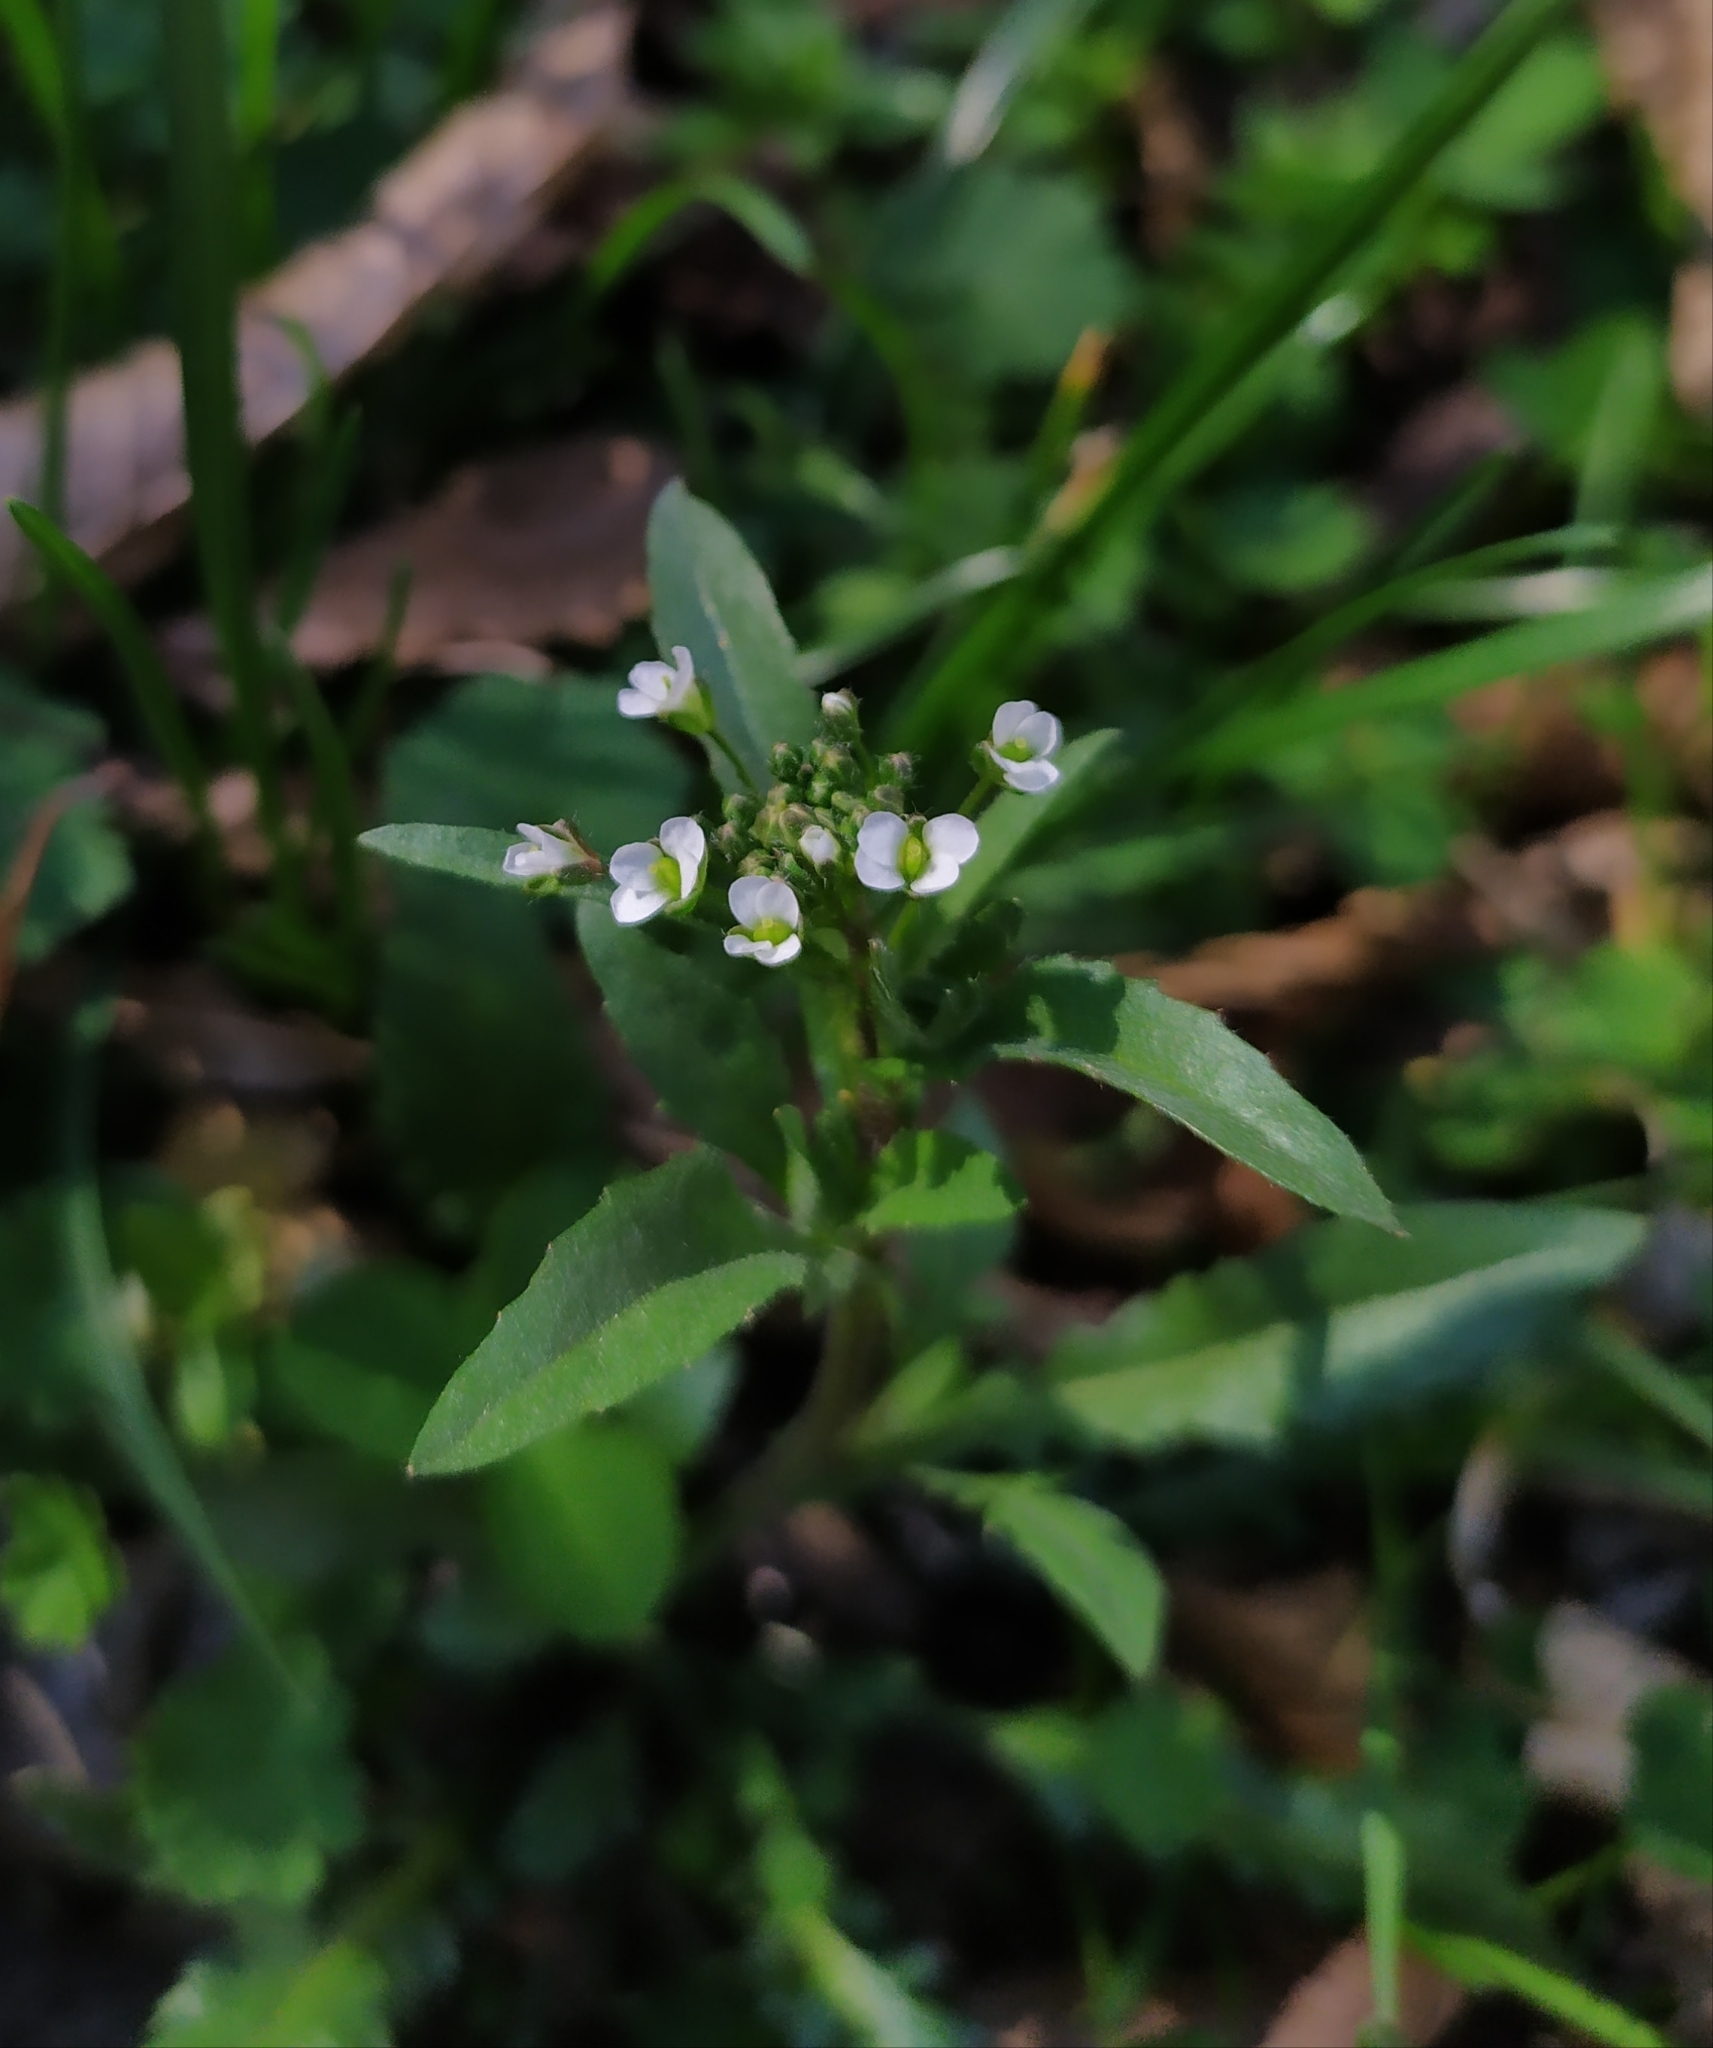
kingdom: Plantae
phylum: Tracheophyta
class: Magnoliopsida
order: Brassicales
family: Brassicaceae
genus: Capsella
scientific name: Capsella bursa-pastoris
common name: Shepherd's purse
